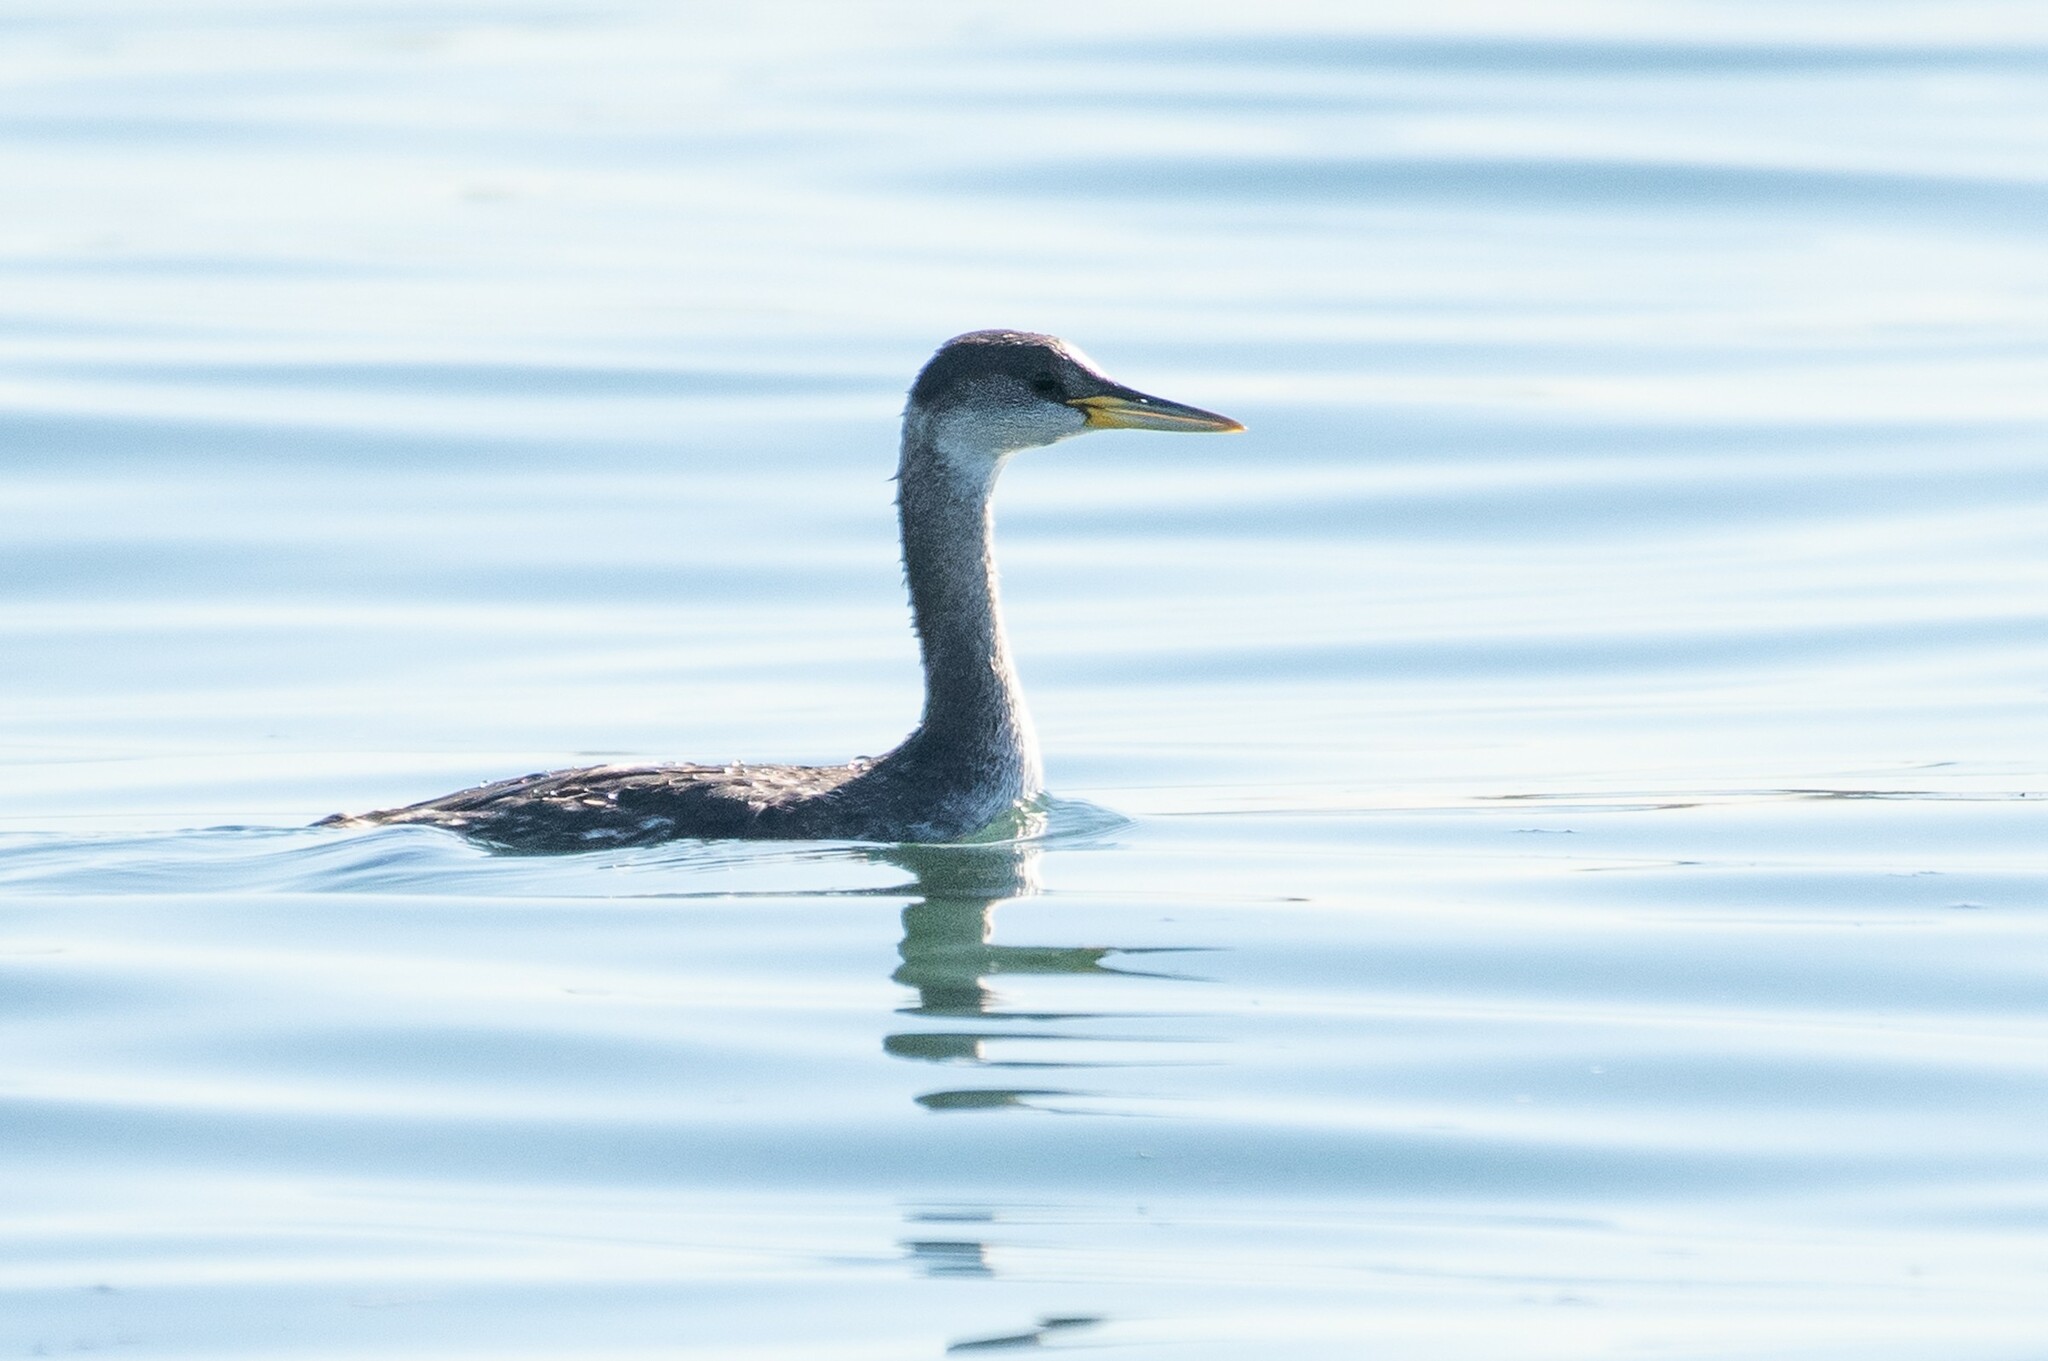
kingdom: Animalia
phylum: Chordata
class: Aves
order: Podicipediformes
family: Podicipedidae
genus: Podiceps
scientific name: Podiceps grisegena
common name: Red-necked grebe
